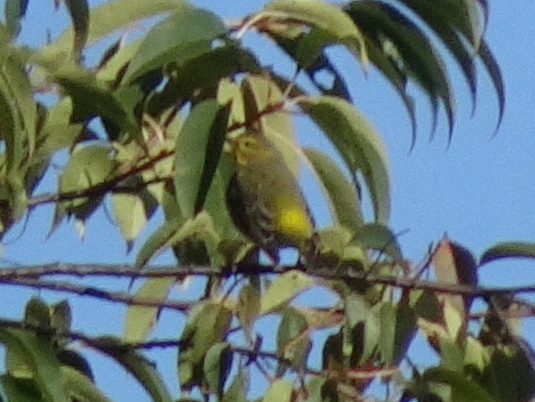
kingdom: Animalia
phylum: Chordata
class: Aves
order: Passeriformes
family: Parulidae
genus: Setophaga
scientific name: Setophaga tigrina
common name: Cape may warbler
